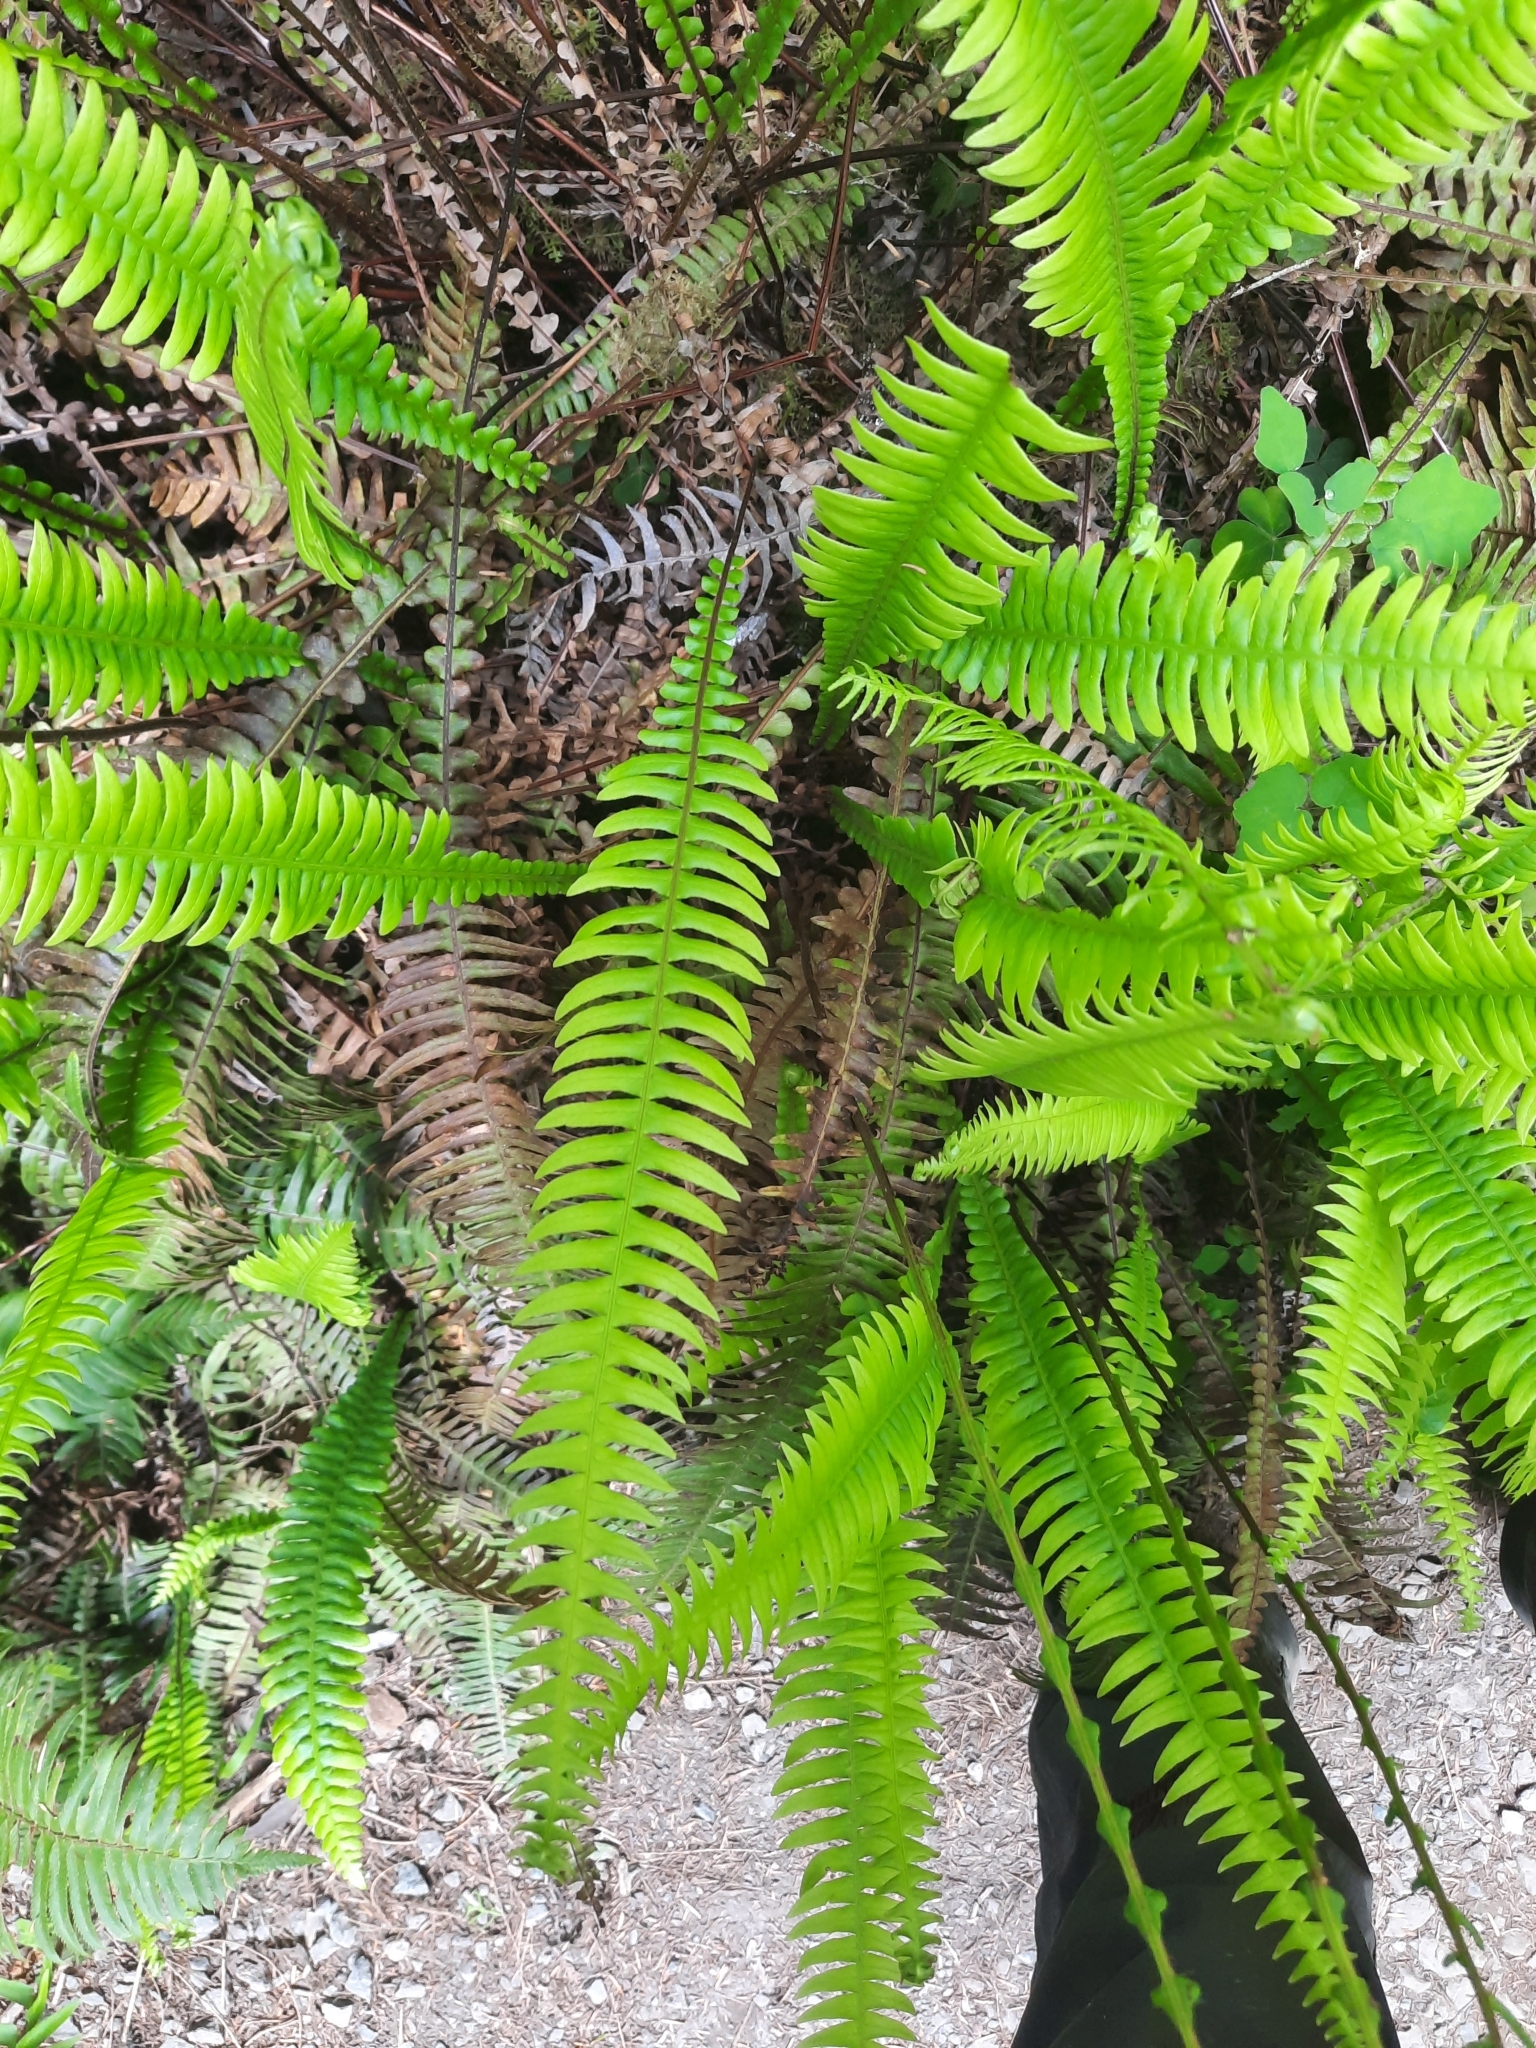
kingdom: Plantae
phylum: Tracheophyta
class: Polypodiopsida
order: Polypodiales
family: Blechnaceae
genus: Struthiopteris
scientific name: Struthiopteris spicant
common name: Deer fern
